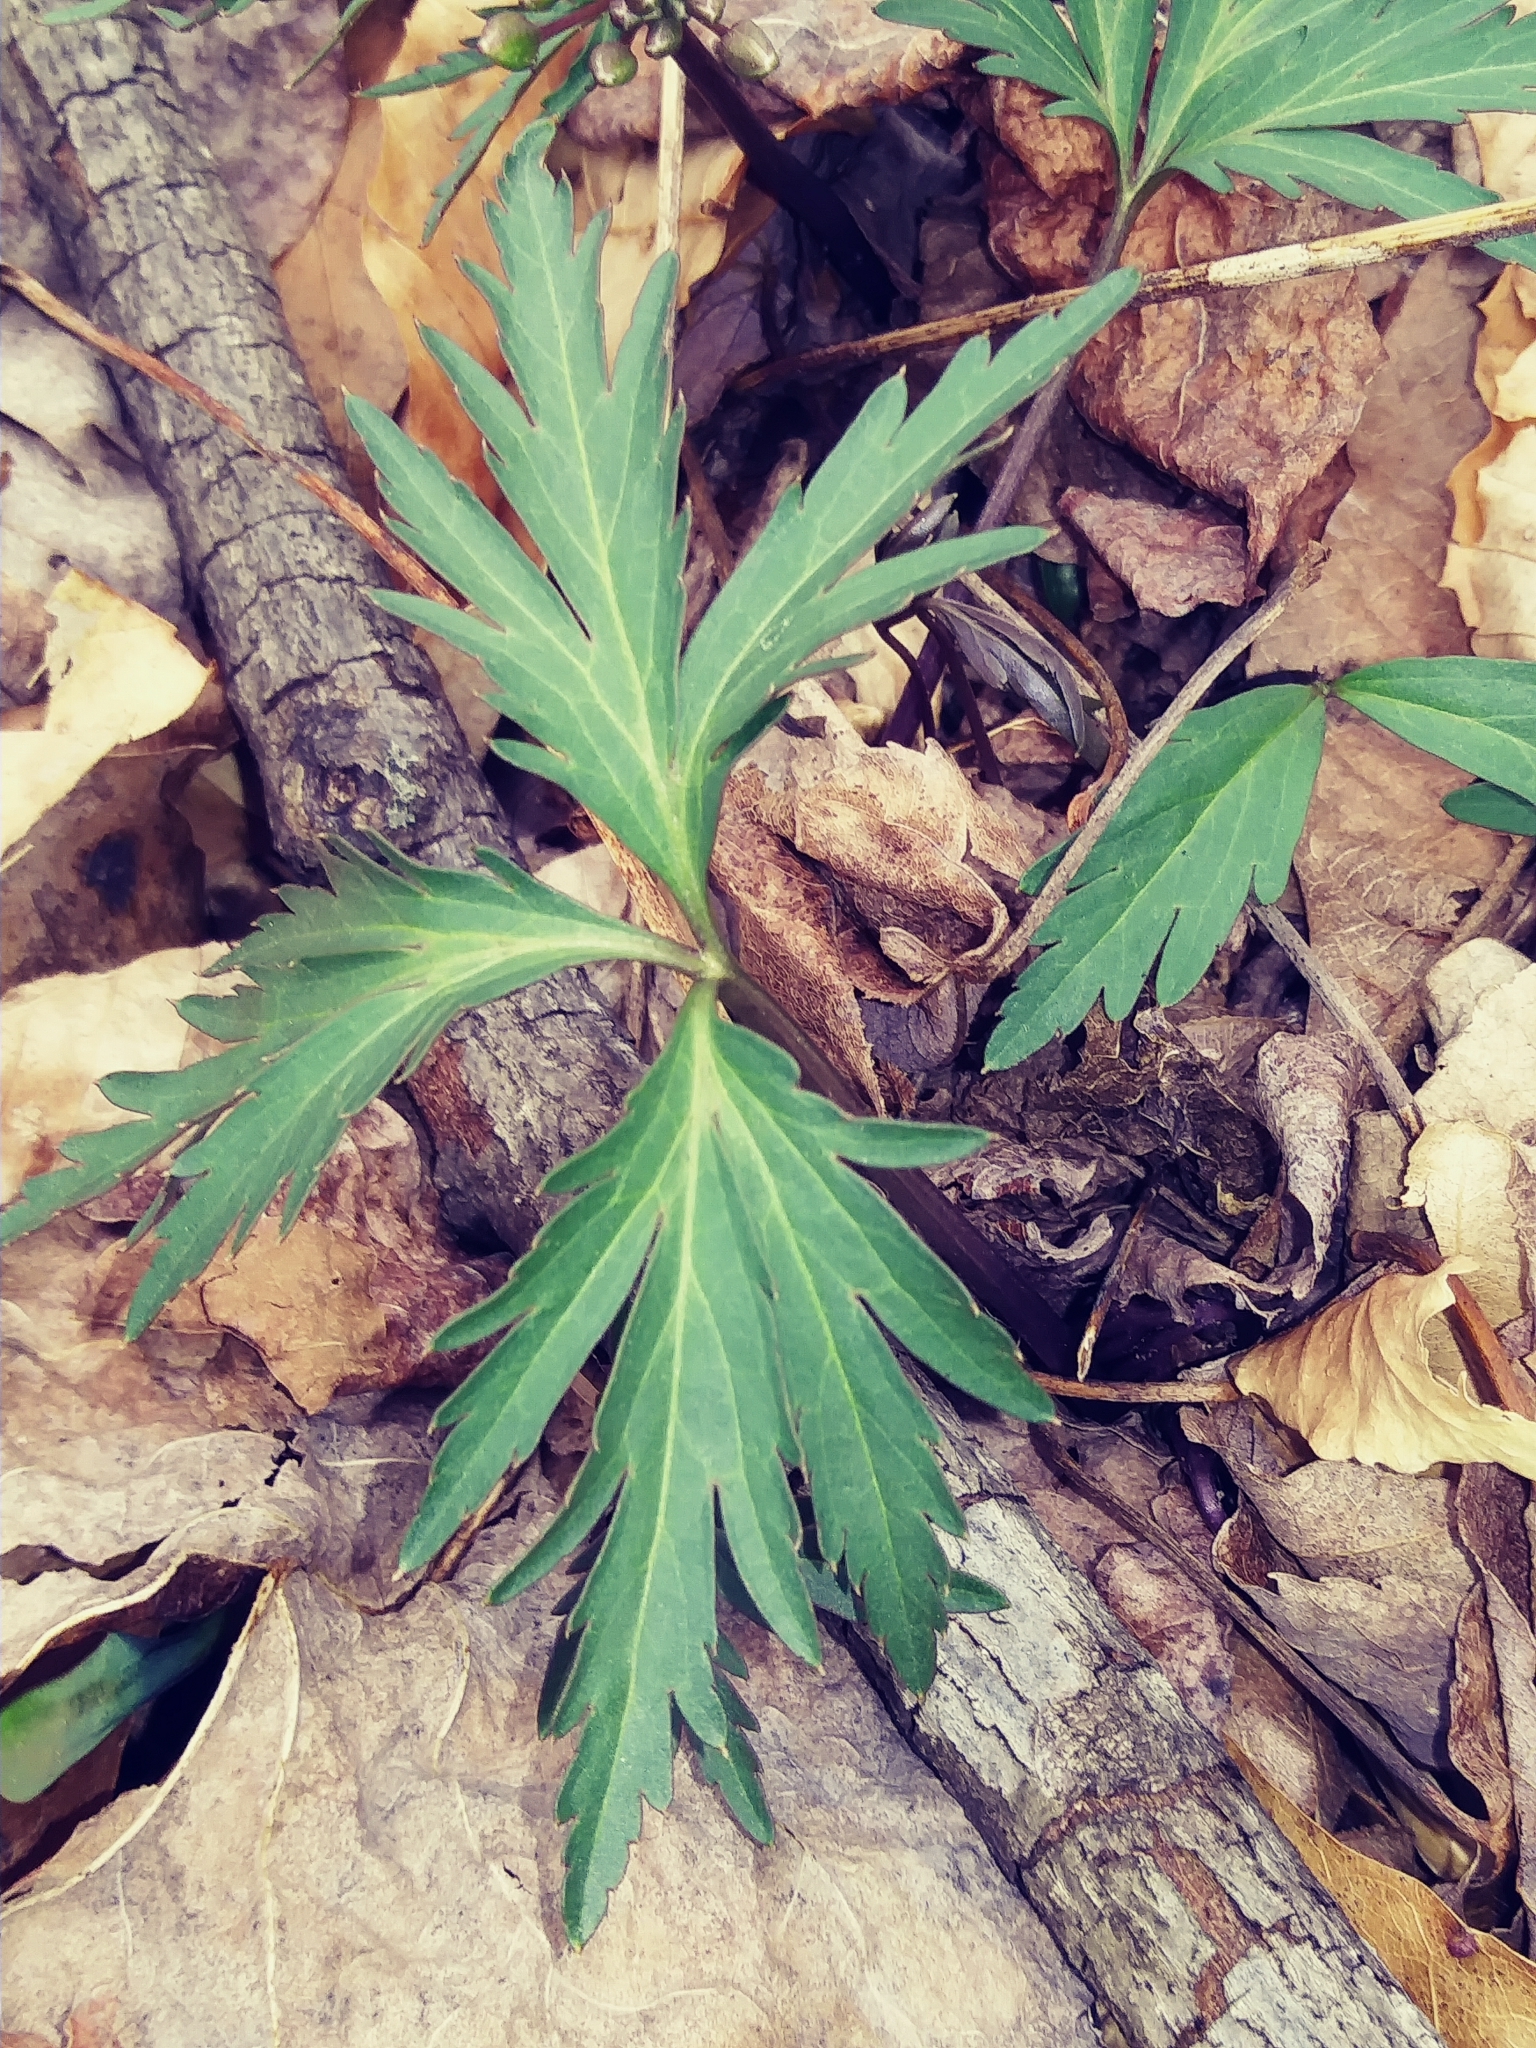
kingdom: Plantae
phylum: Tracheophyta
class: Magnoliopsida
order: Brassicales
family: Brassicaceae
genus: Cardamine
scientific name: Cardamine concatenata
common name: Cut-leaf toothcup
